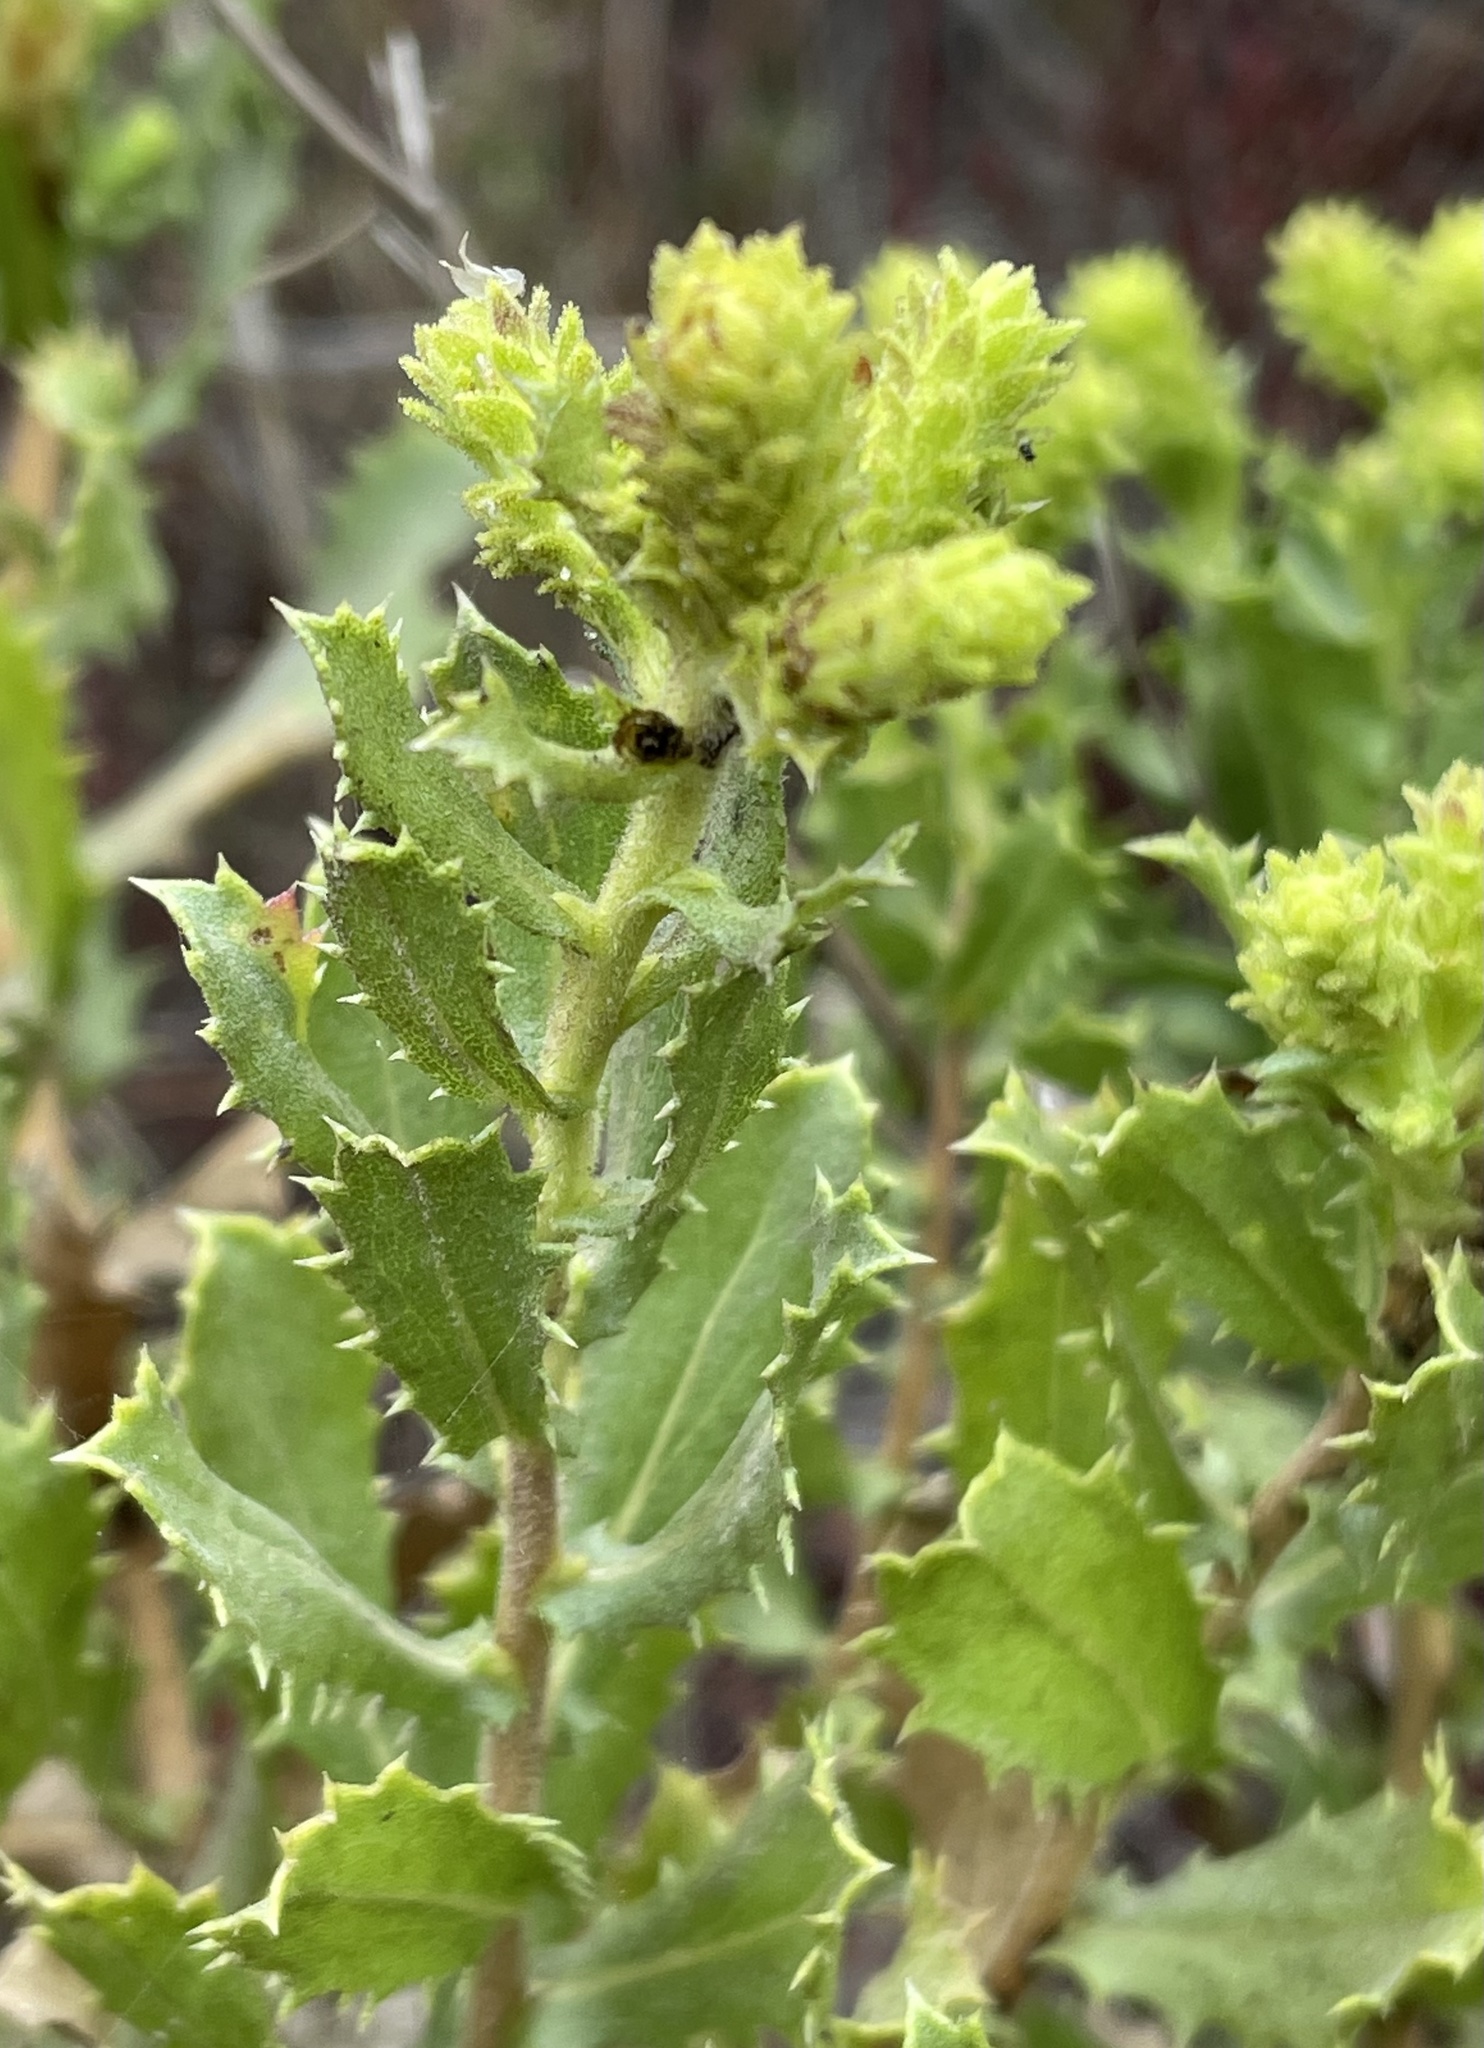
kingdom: Plantae
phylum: Tracheophyta
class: Magnoliopsida
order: Asterales
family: Asteraceae
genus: Hazardia
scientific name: Hazardia squarrosa
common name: Saw-tooth goldenbush
